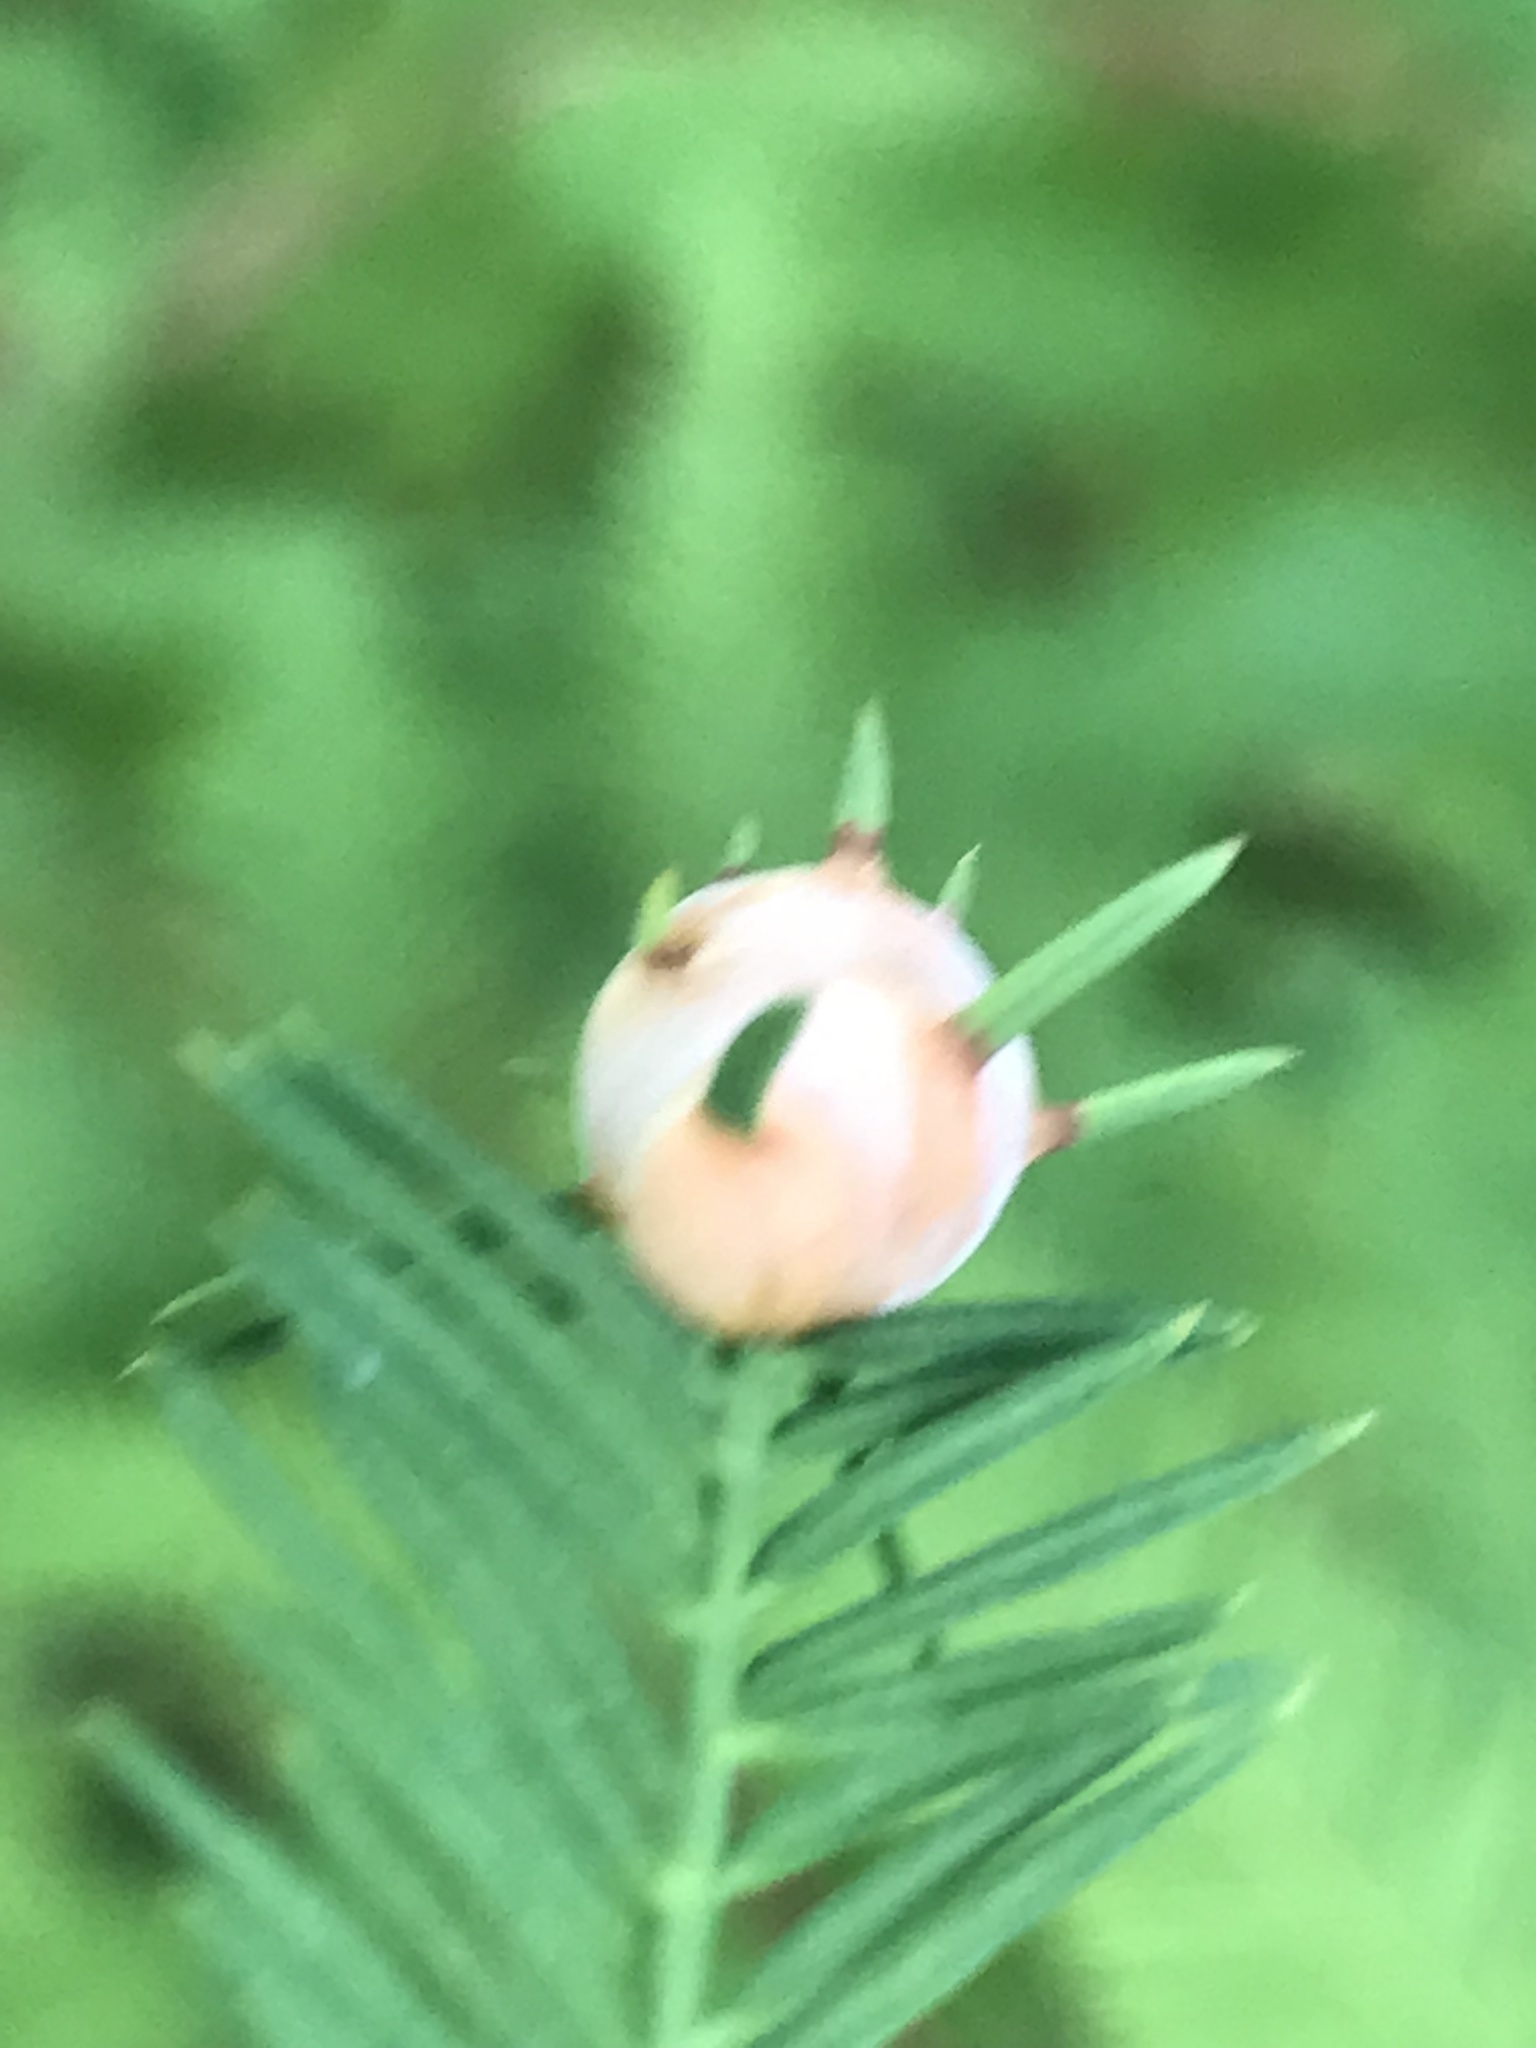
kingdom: Animalia
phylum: Arthropoda
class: Insecta
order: Diptera
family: Cecidomyiidae
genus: Taxodiomyia
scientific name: Taxodiomyia cupressiananassa
